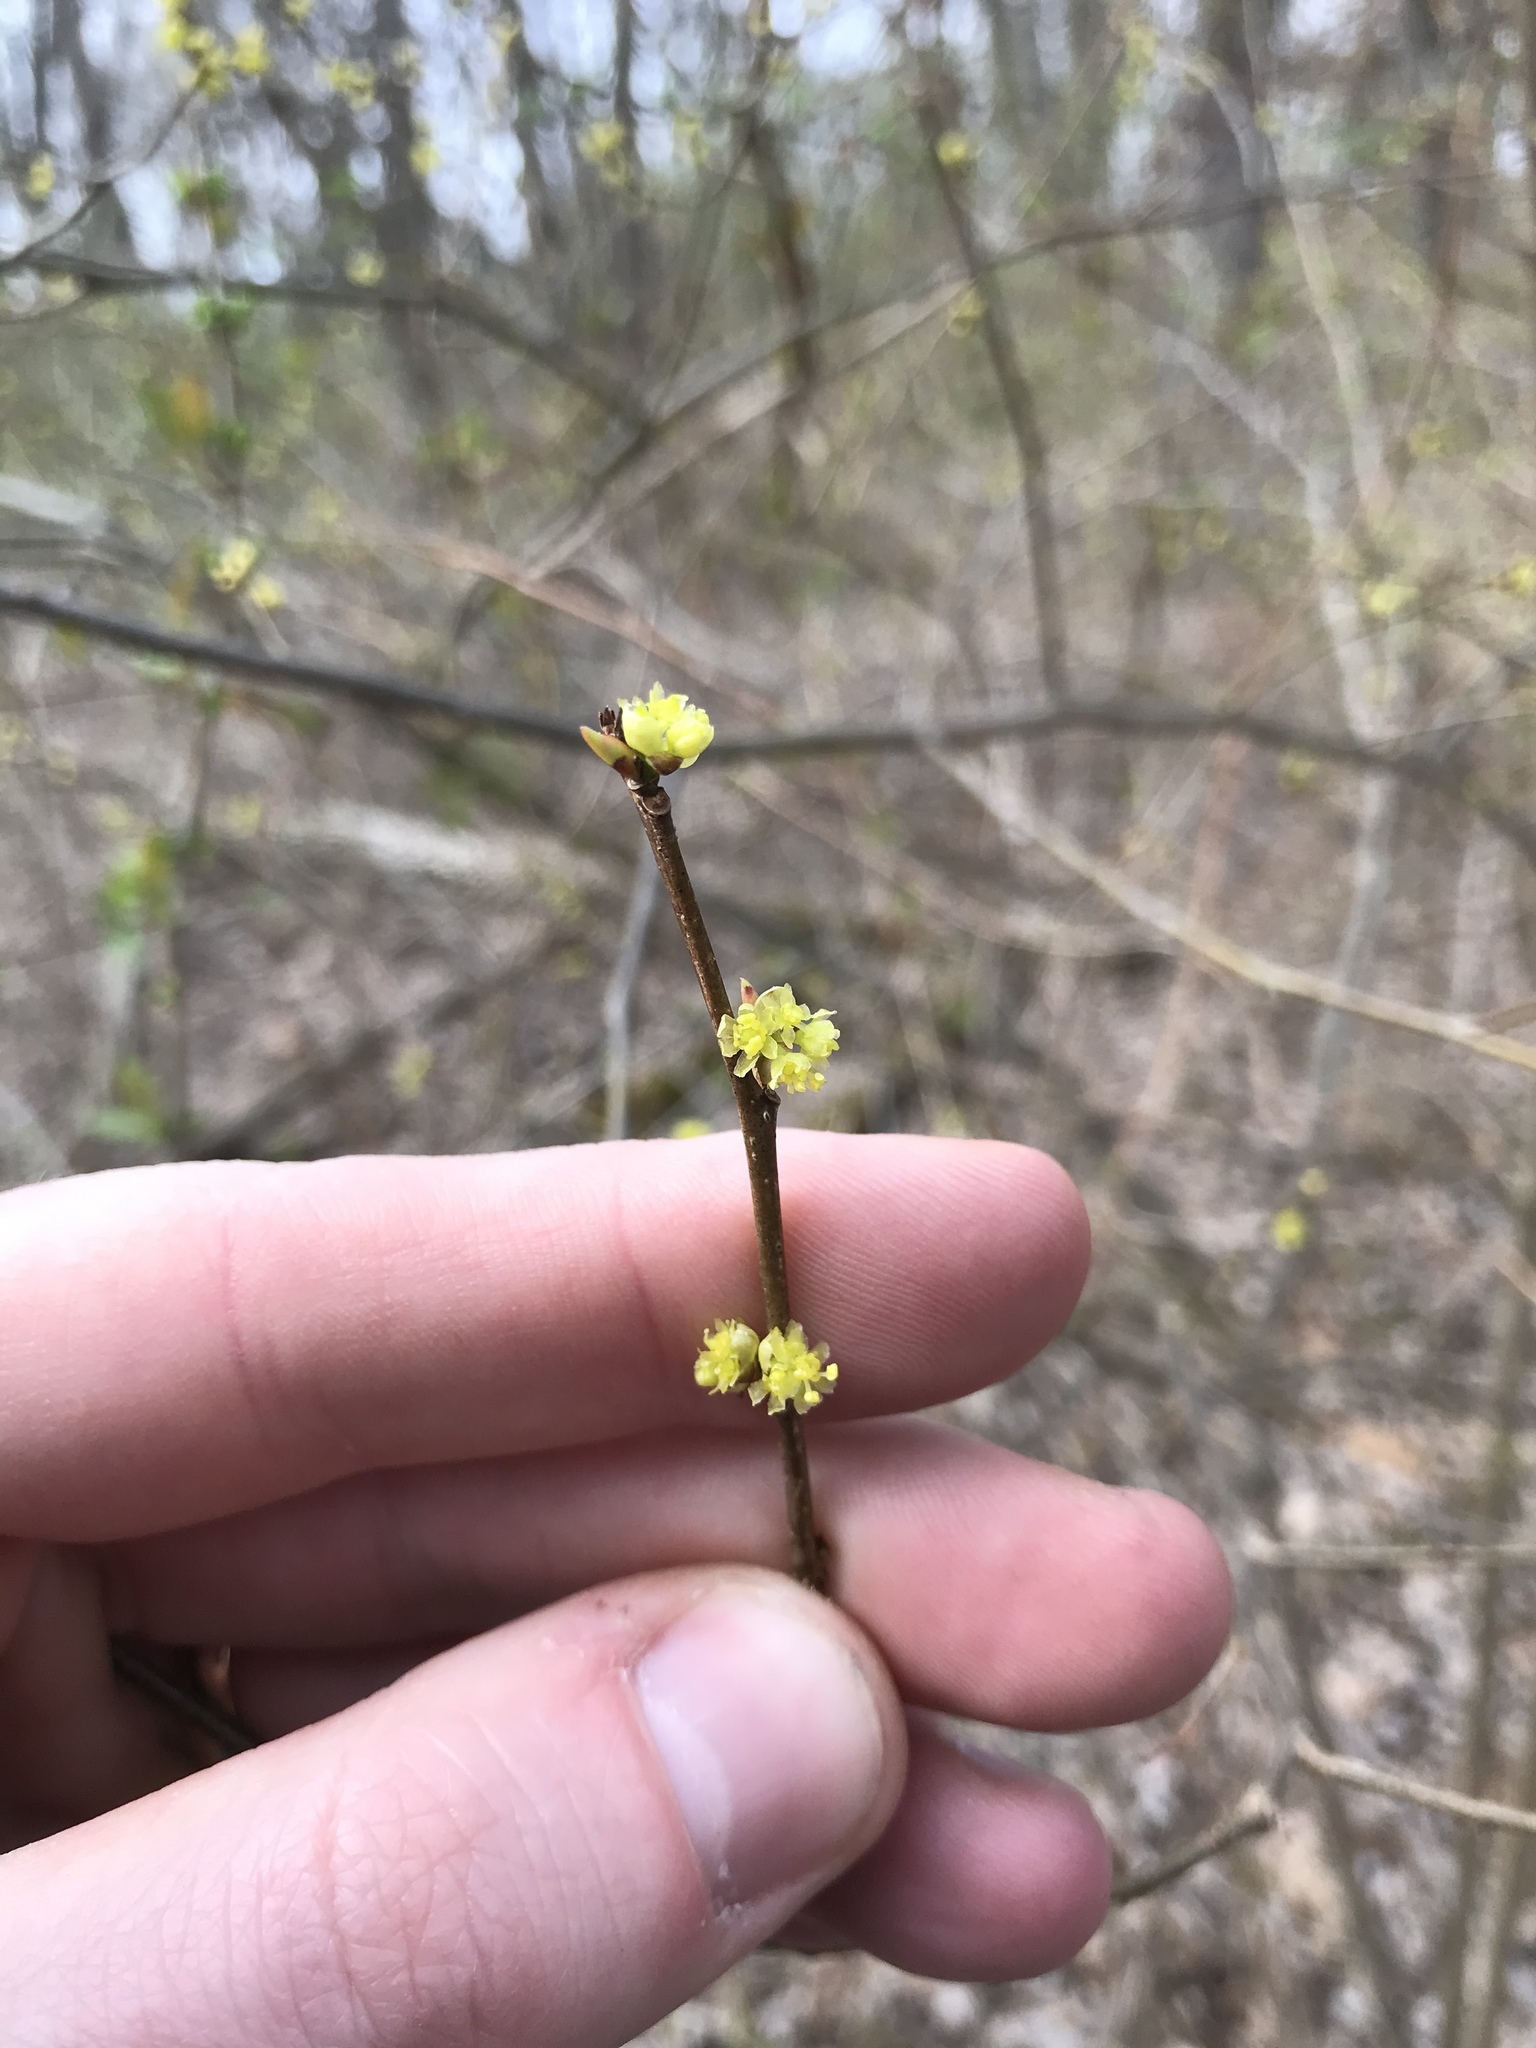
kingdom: Plantae
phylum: Tracheophyta
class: Magnoliopsida
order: Laurales
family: Lauraceae
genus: Lindera
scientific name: Lindera benzoin
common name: Spicebush
